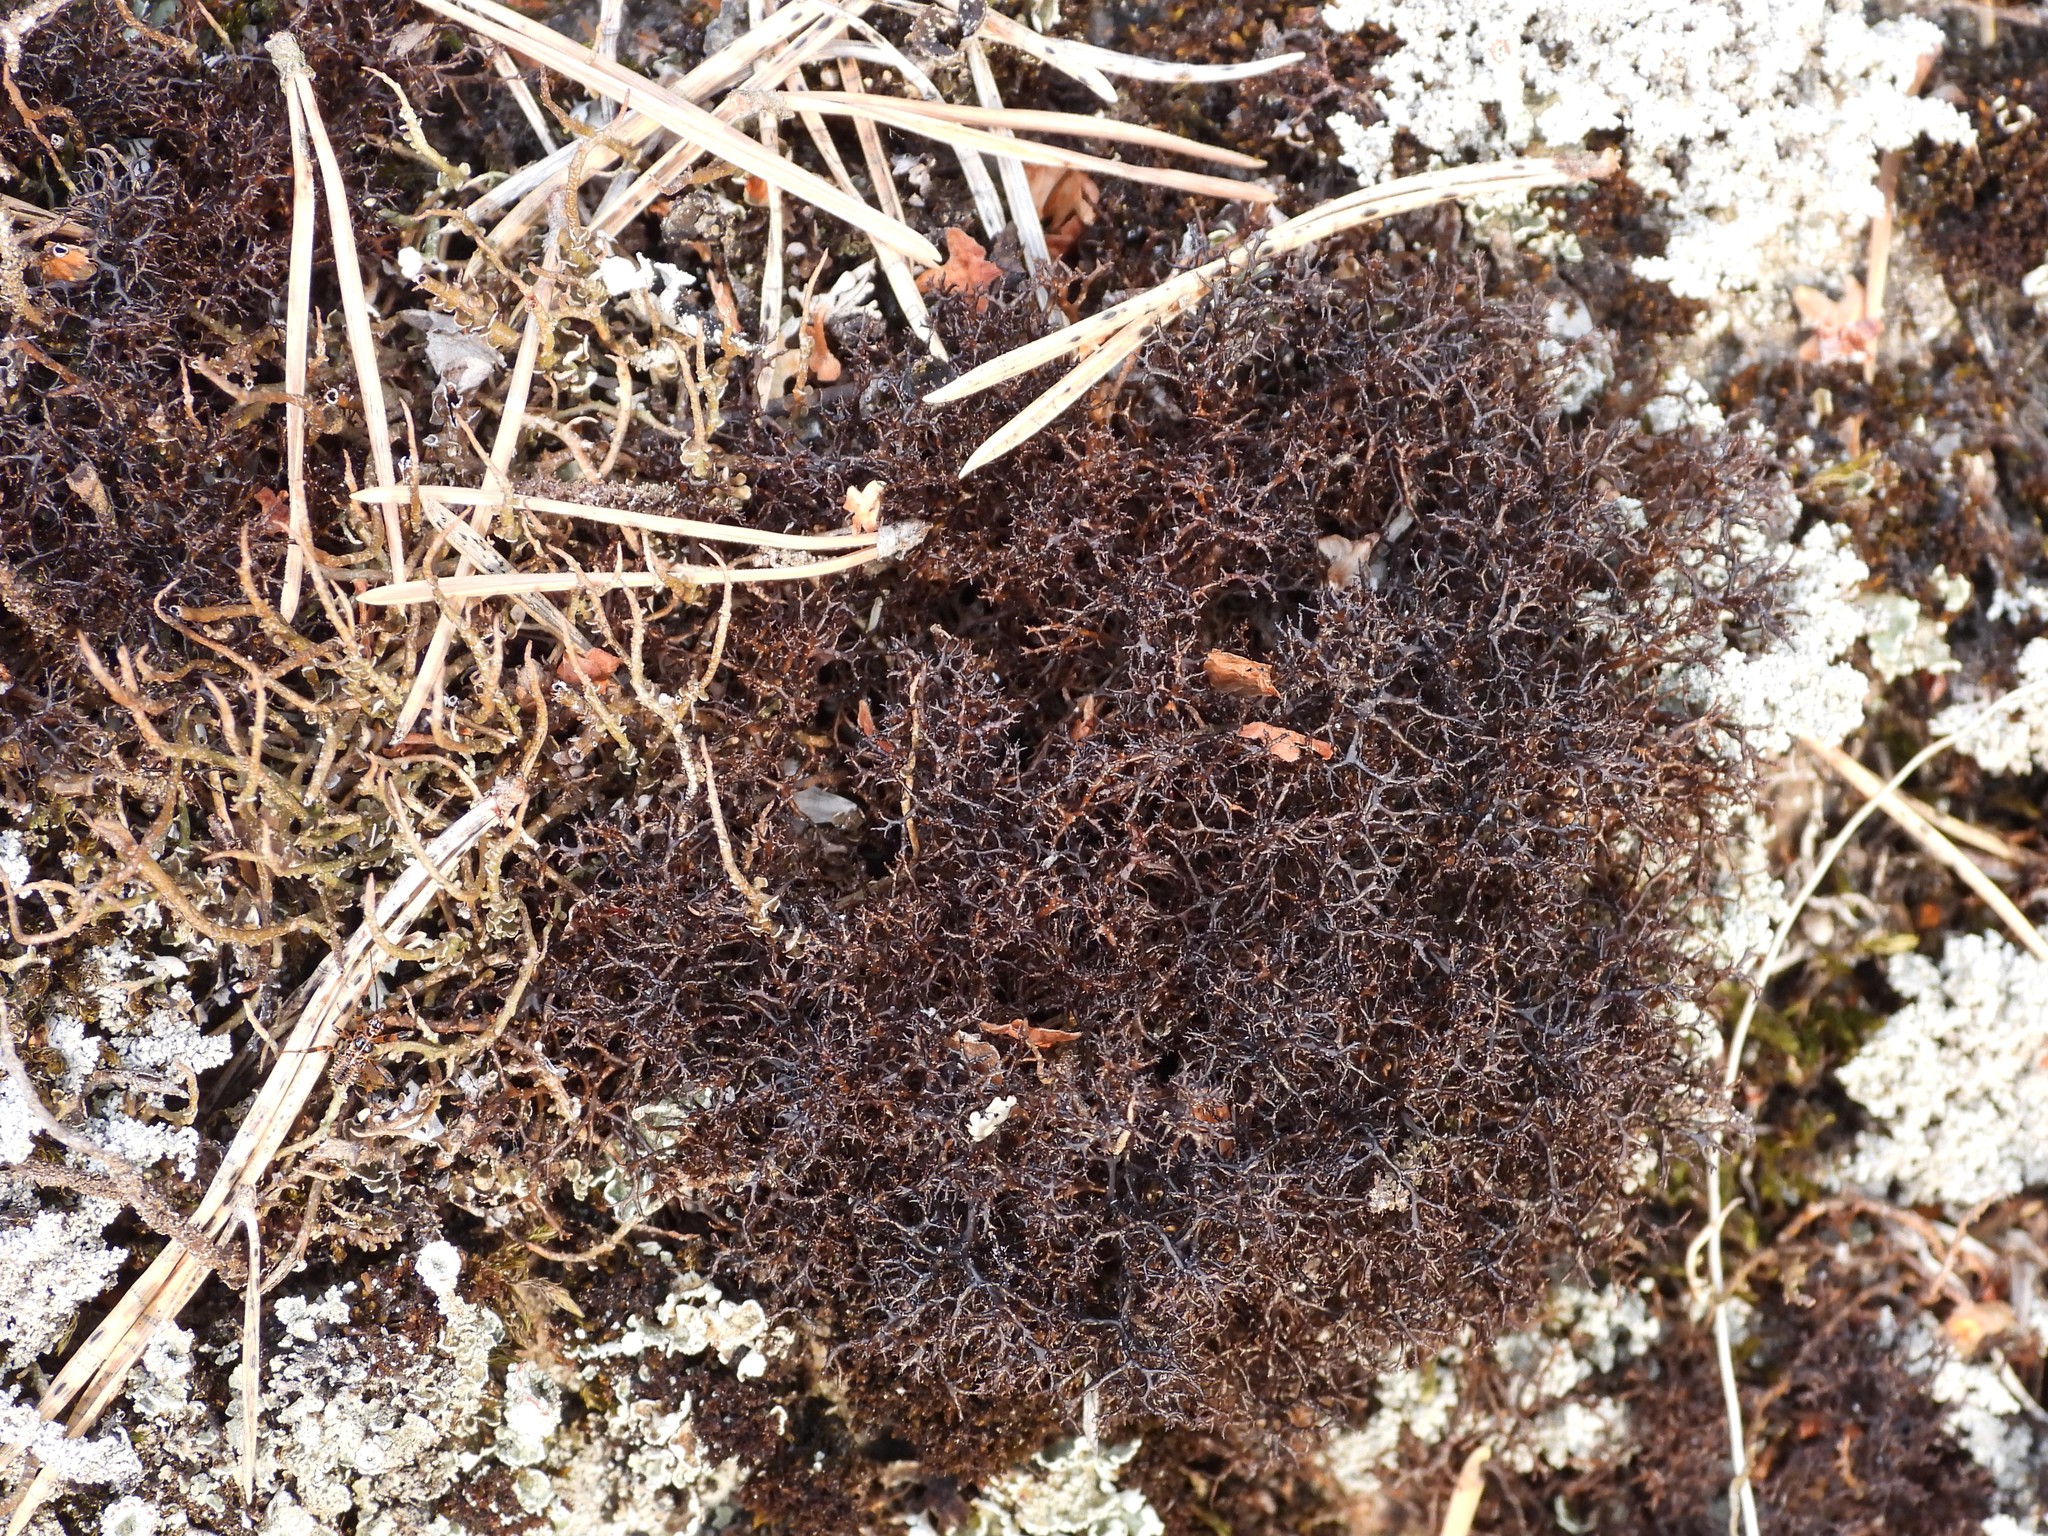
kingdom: Fungi
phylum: Ascomycota
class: Lecanoromycetes
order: Lecanorales
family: Parmeliaceae
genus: Cetraria
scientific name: Cetraria muricata
